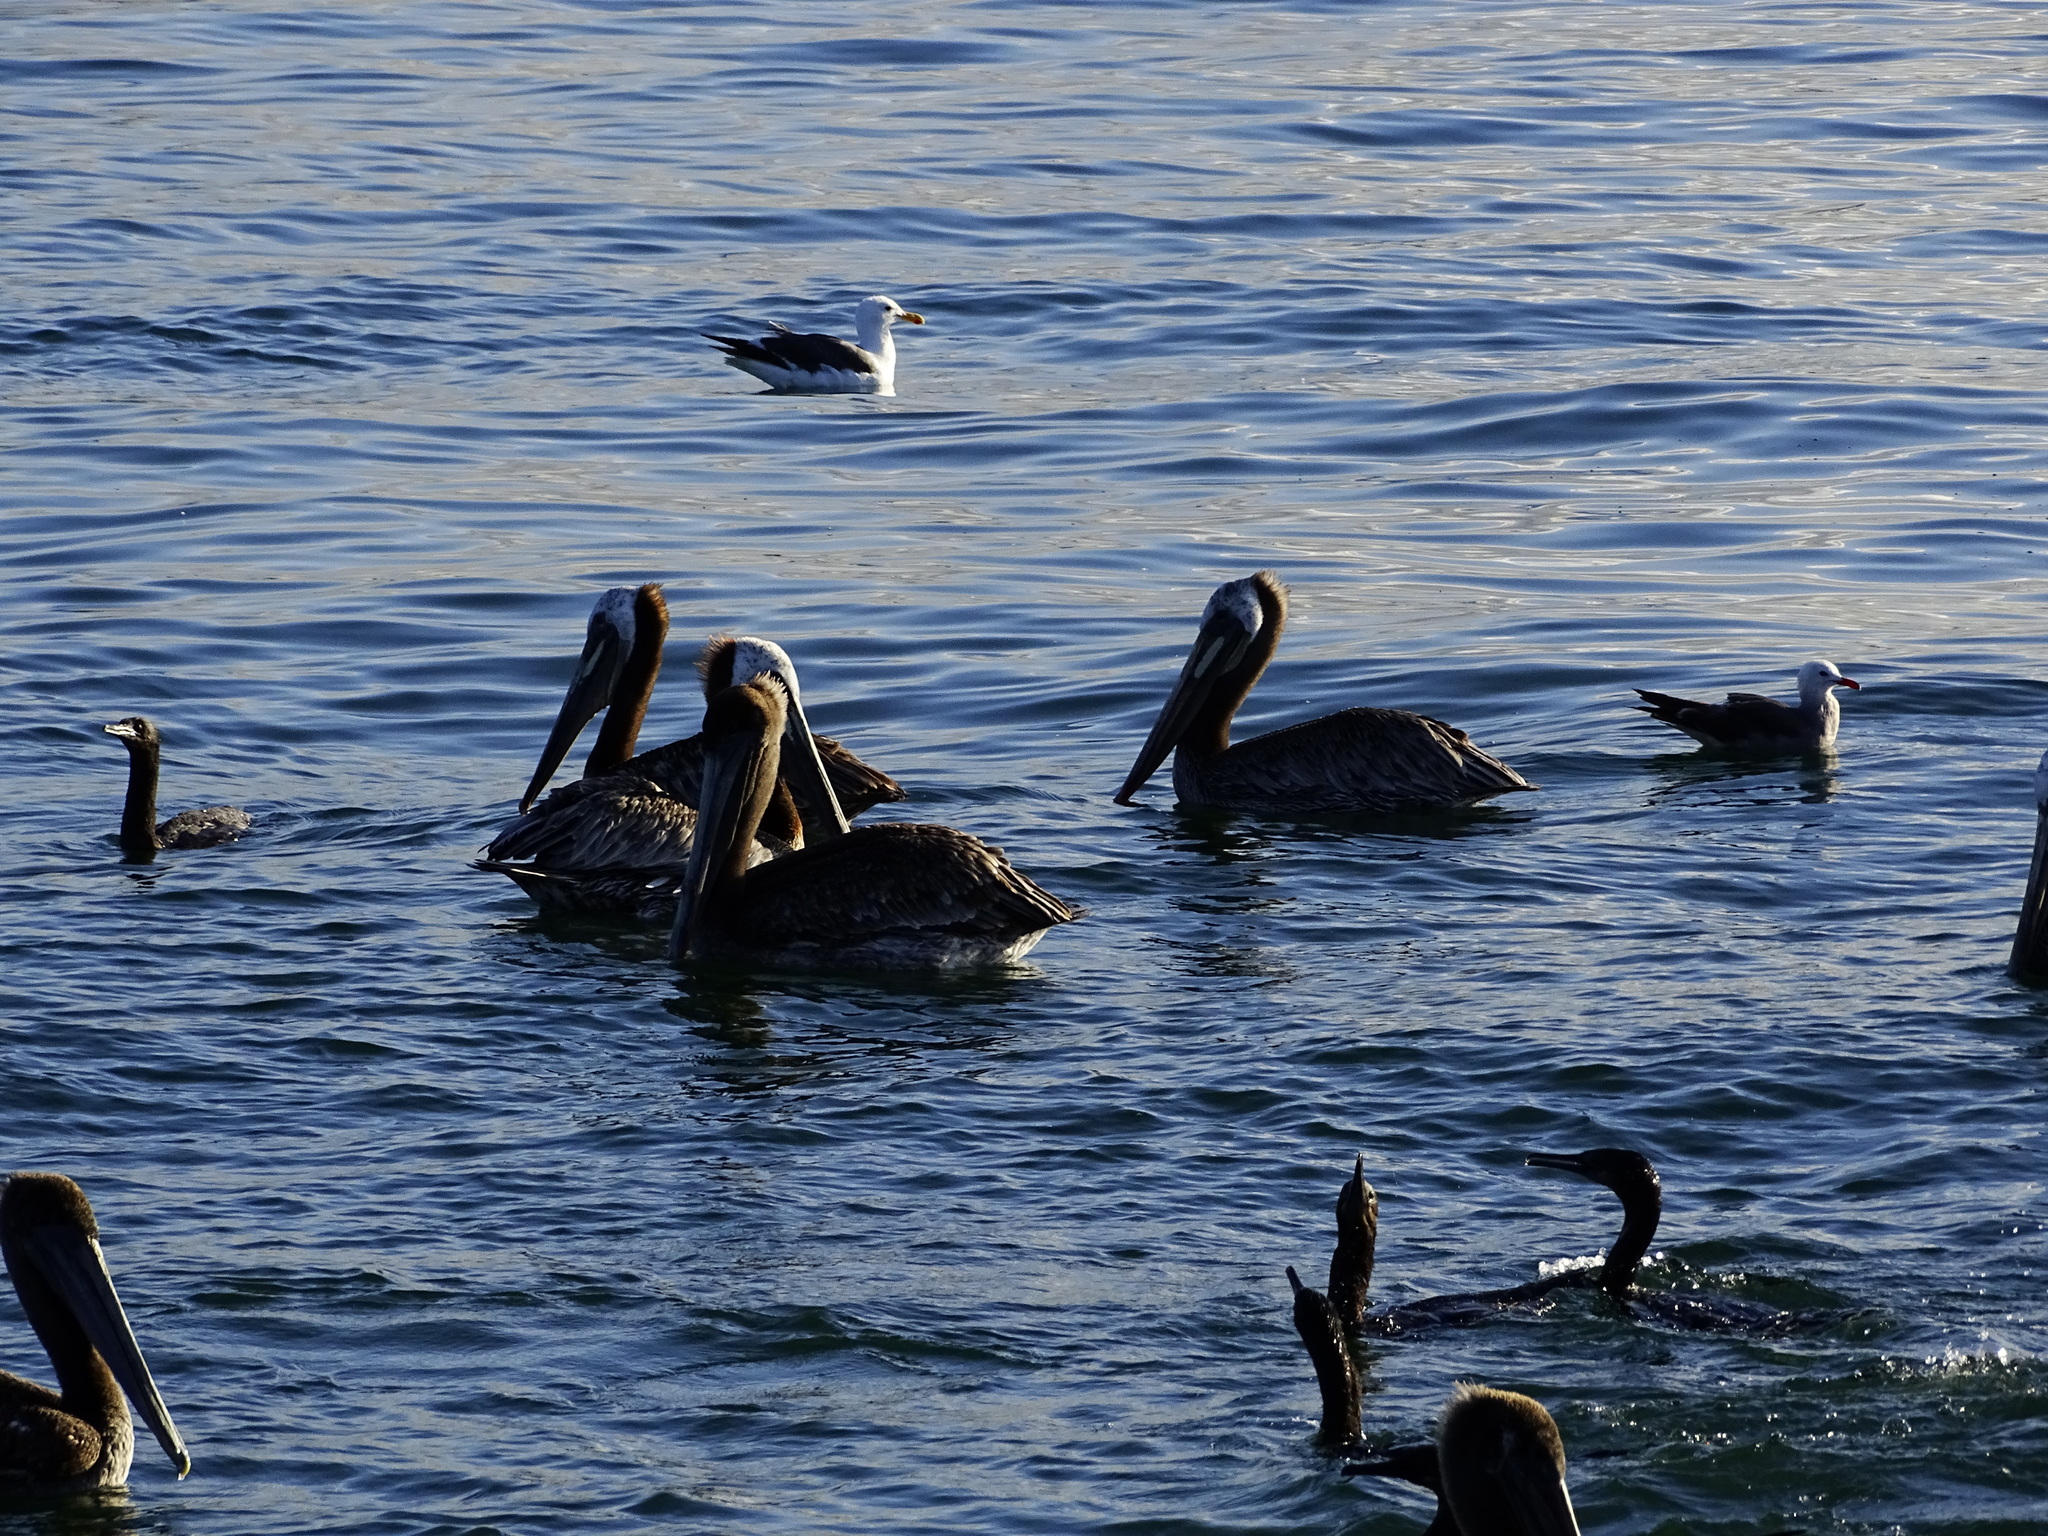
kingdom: Animalia
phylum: Chordata
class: Aves
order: Pelecaniformes
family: Pelecanidae
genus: Pelecanus
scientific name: Pelecanus occidentalis
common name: Brown pelican
